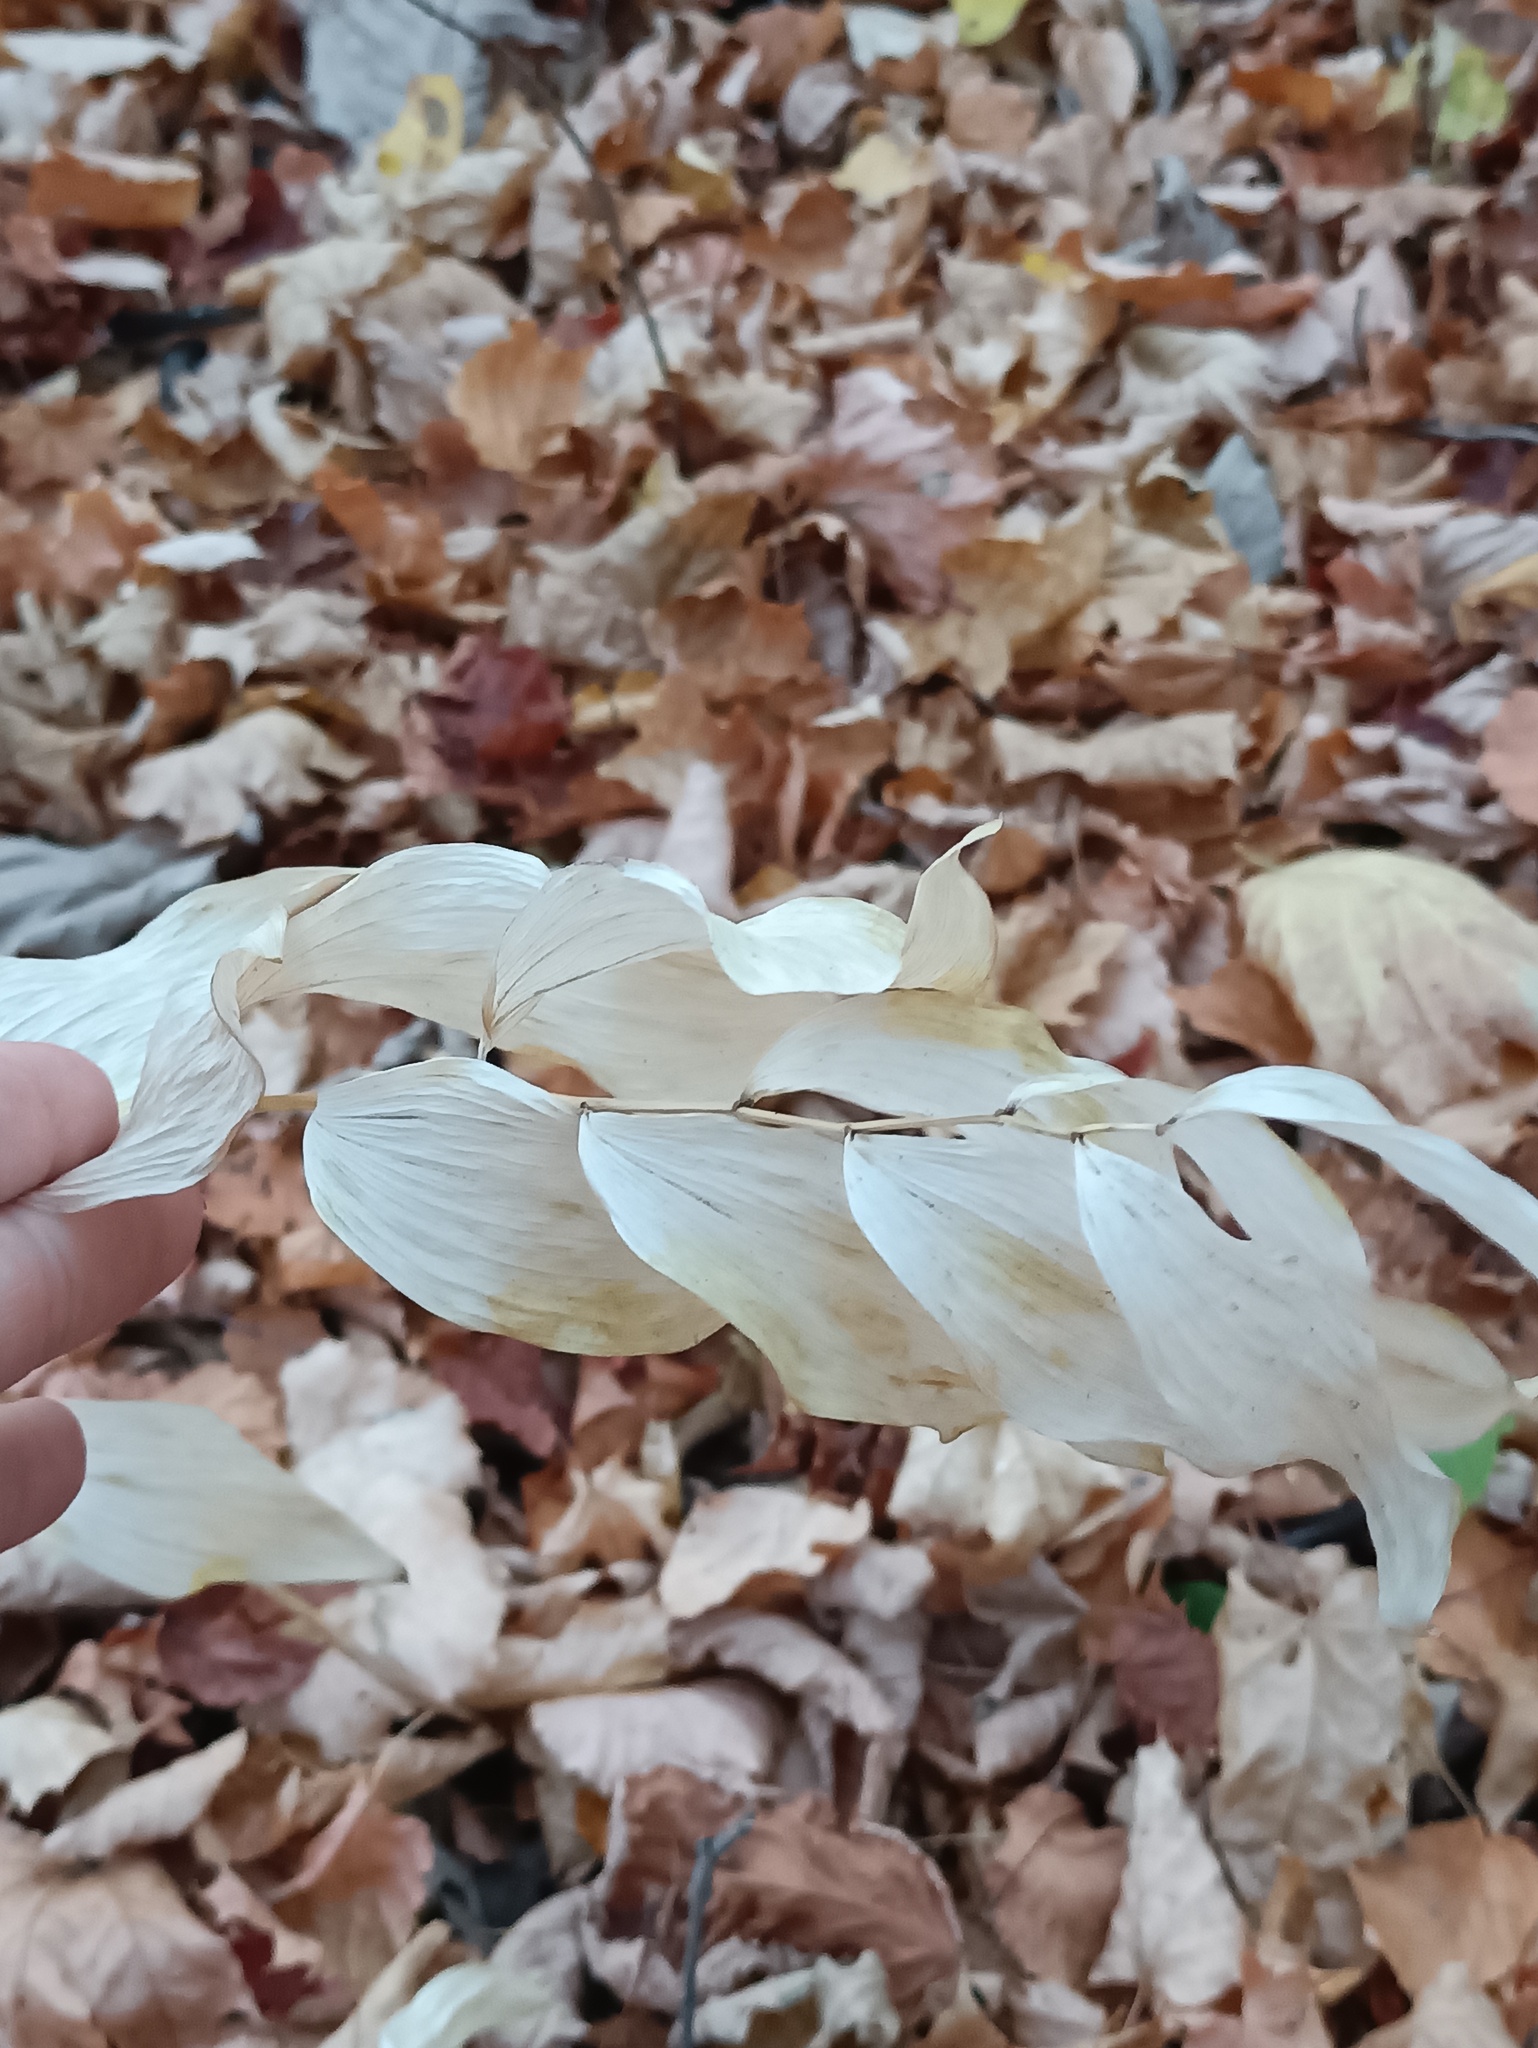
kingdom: Plantae
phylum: Tracheophyta
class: Liliopsida
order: Asparagales
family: Asparagaceae
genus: Polygonatum
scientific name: Polygonatum multiflorum
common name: Solomon's-seal
